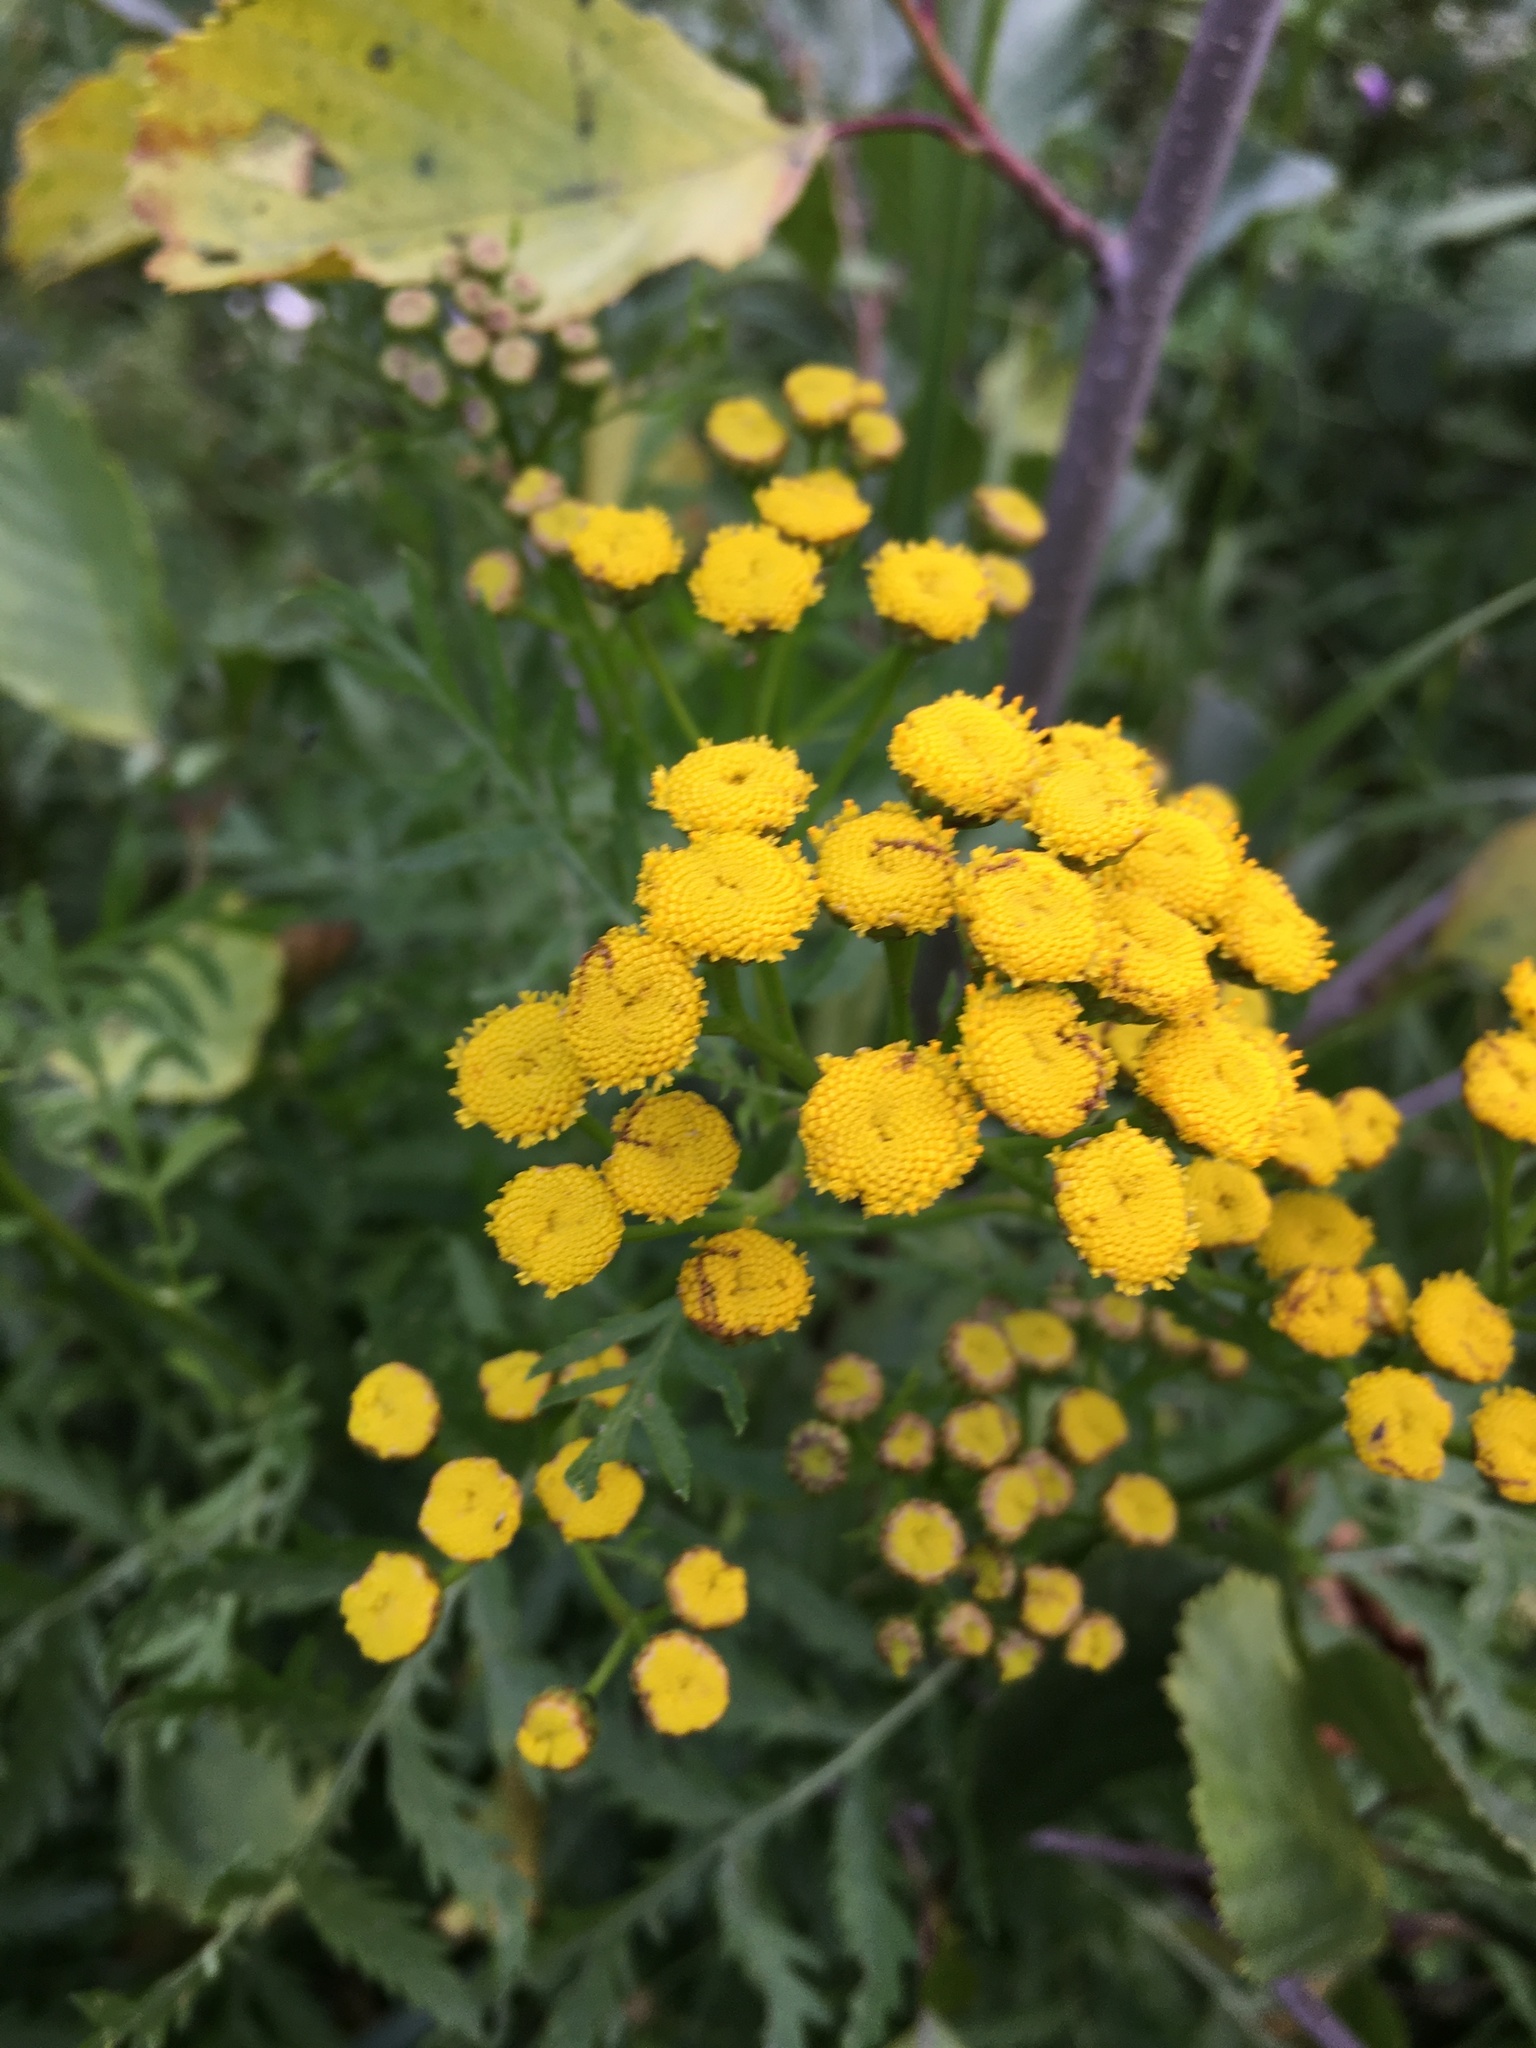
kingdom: Plantae
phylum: Tracheophyta
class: Magnoliopsida
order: Asterales
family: Asteraceae
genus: Tanacetum
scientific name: Tanacetum vulgare
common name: Common tansy
